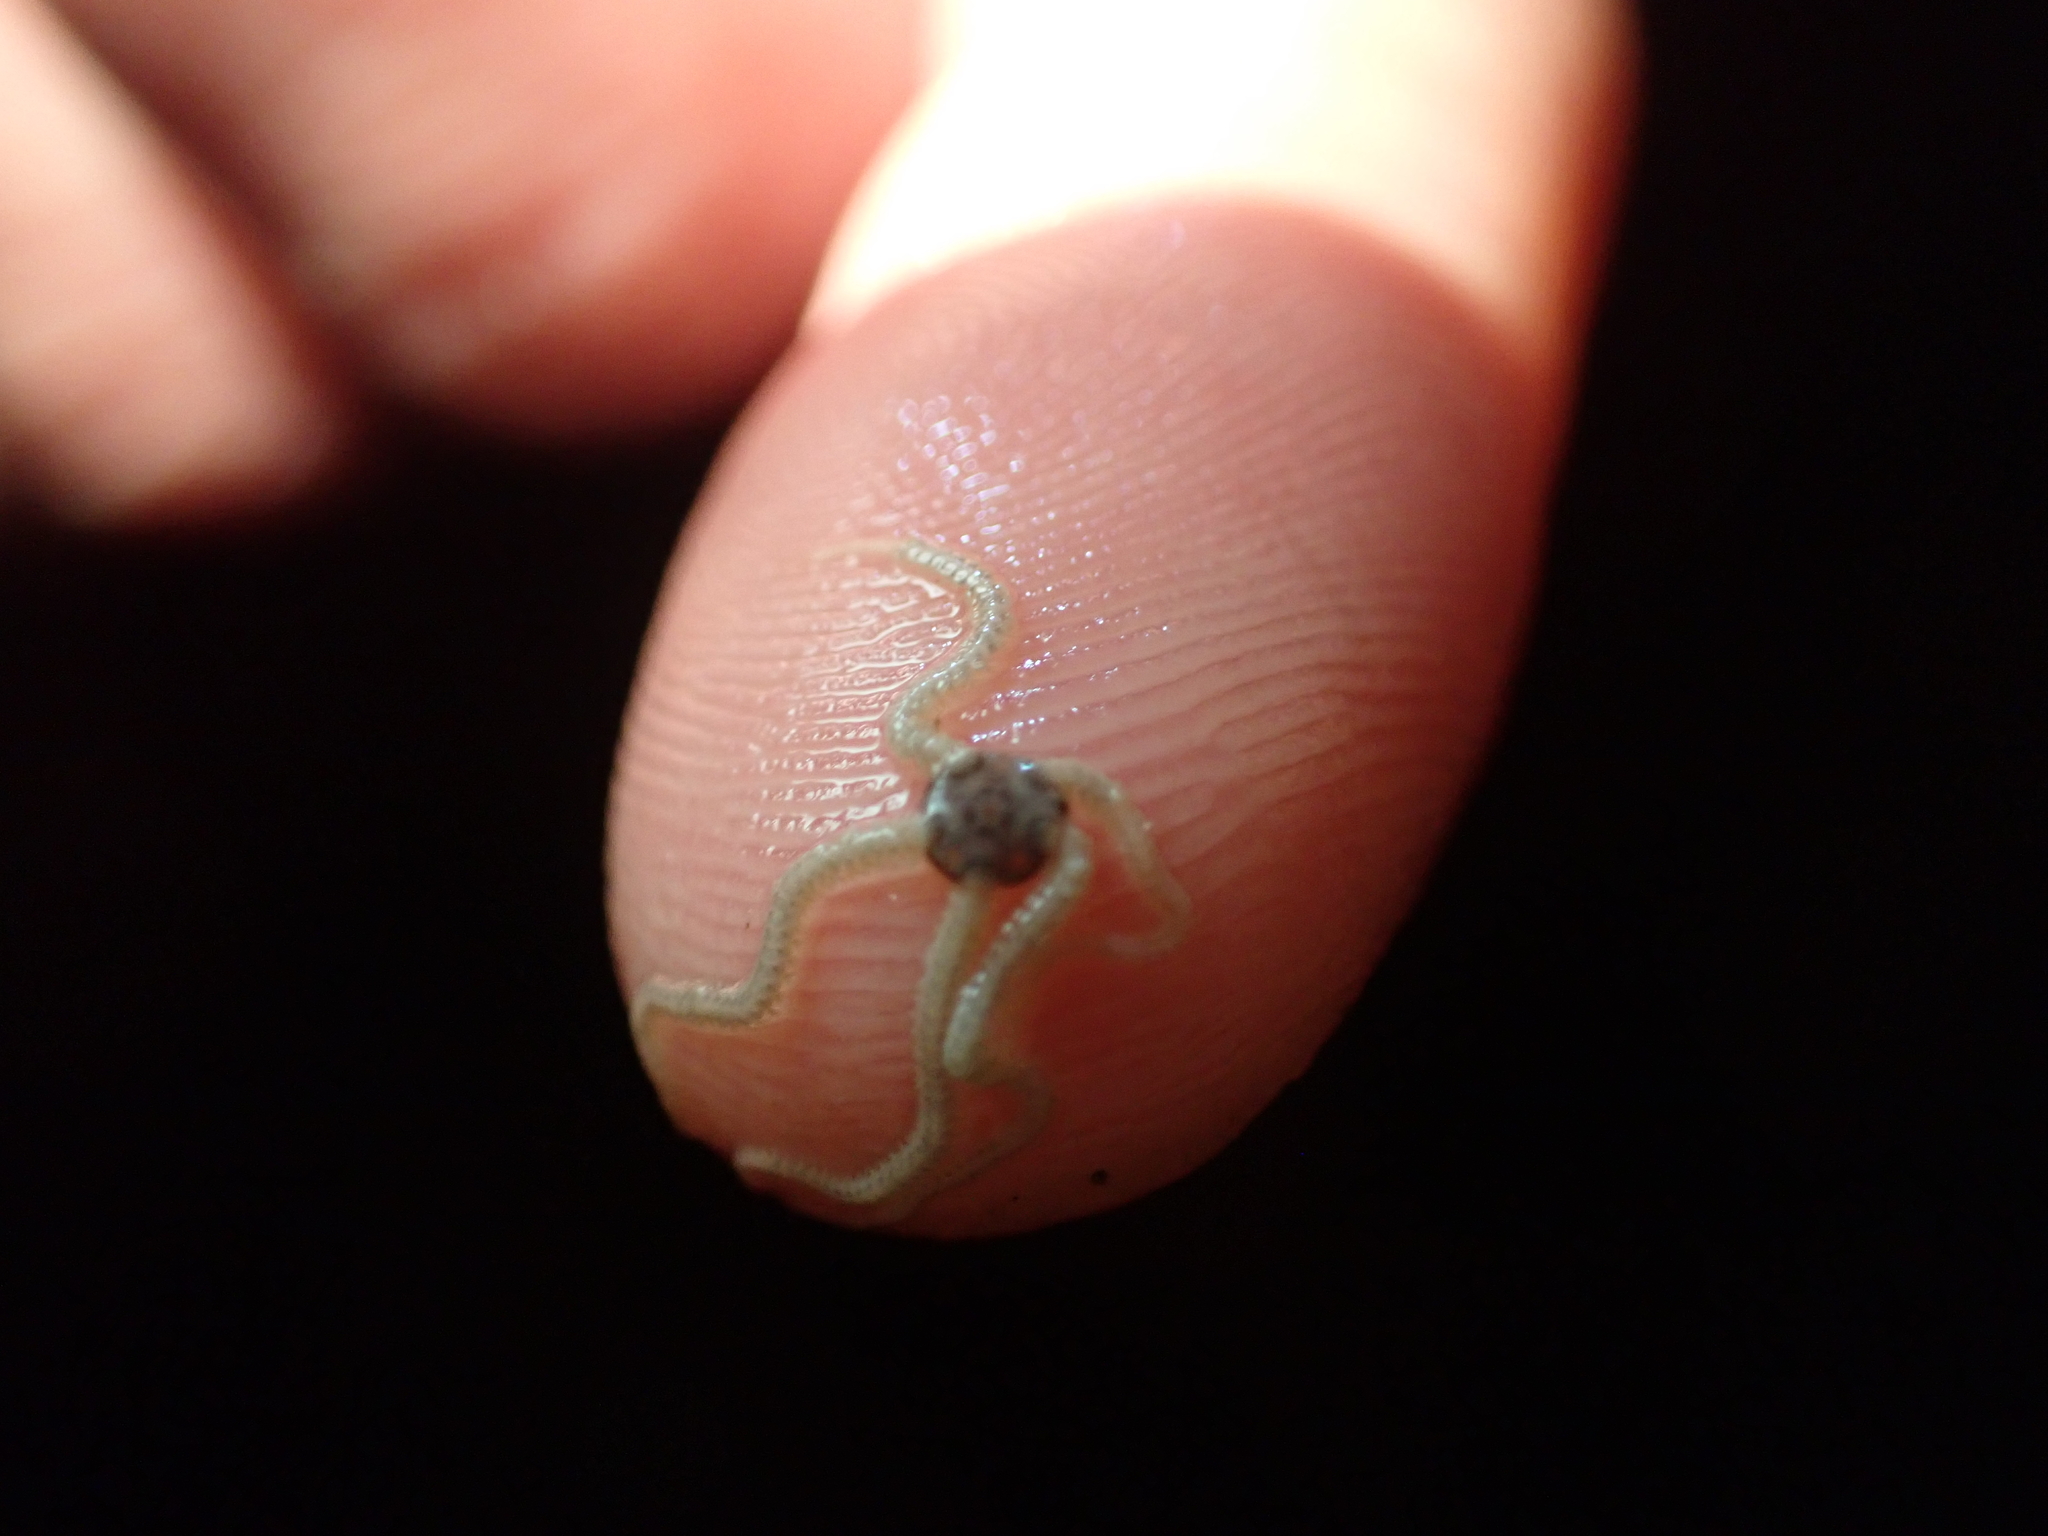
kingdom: Animalia
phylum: Echinodermata
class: Ophiuroidea
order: Amphilepidida
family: Amphiuridae
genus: Amphipholis
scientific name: Amphipholis squamata
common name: Brooding snake star
